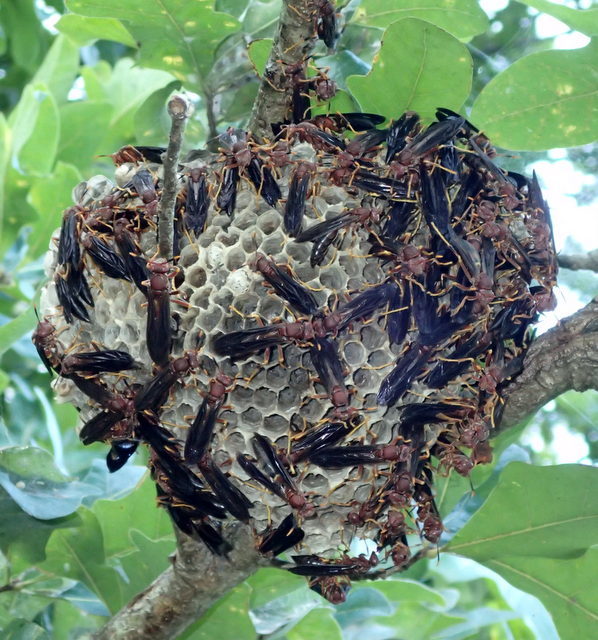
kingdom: Animalia
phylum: Arthropoda
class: Insecta
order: Hymenoptera
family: Eumenidae
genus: Polistes
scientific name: Polistes annularis
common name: Ringed paper wasp
